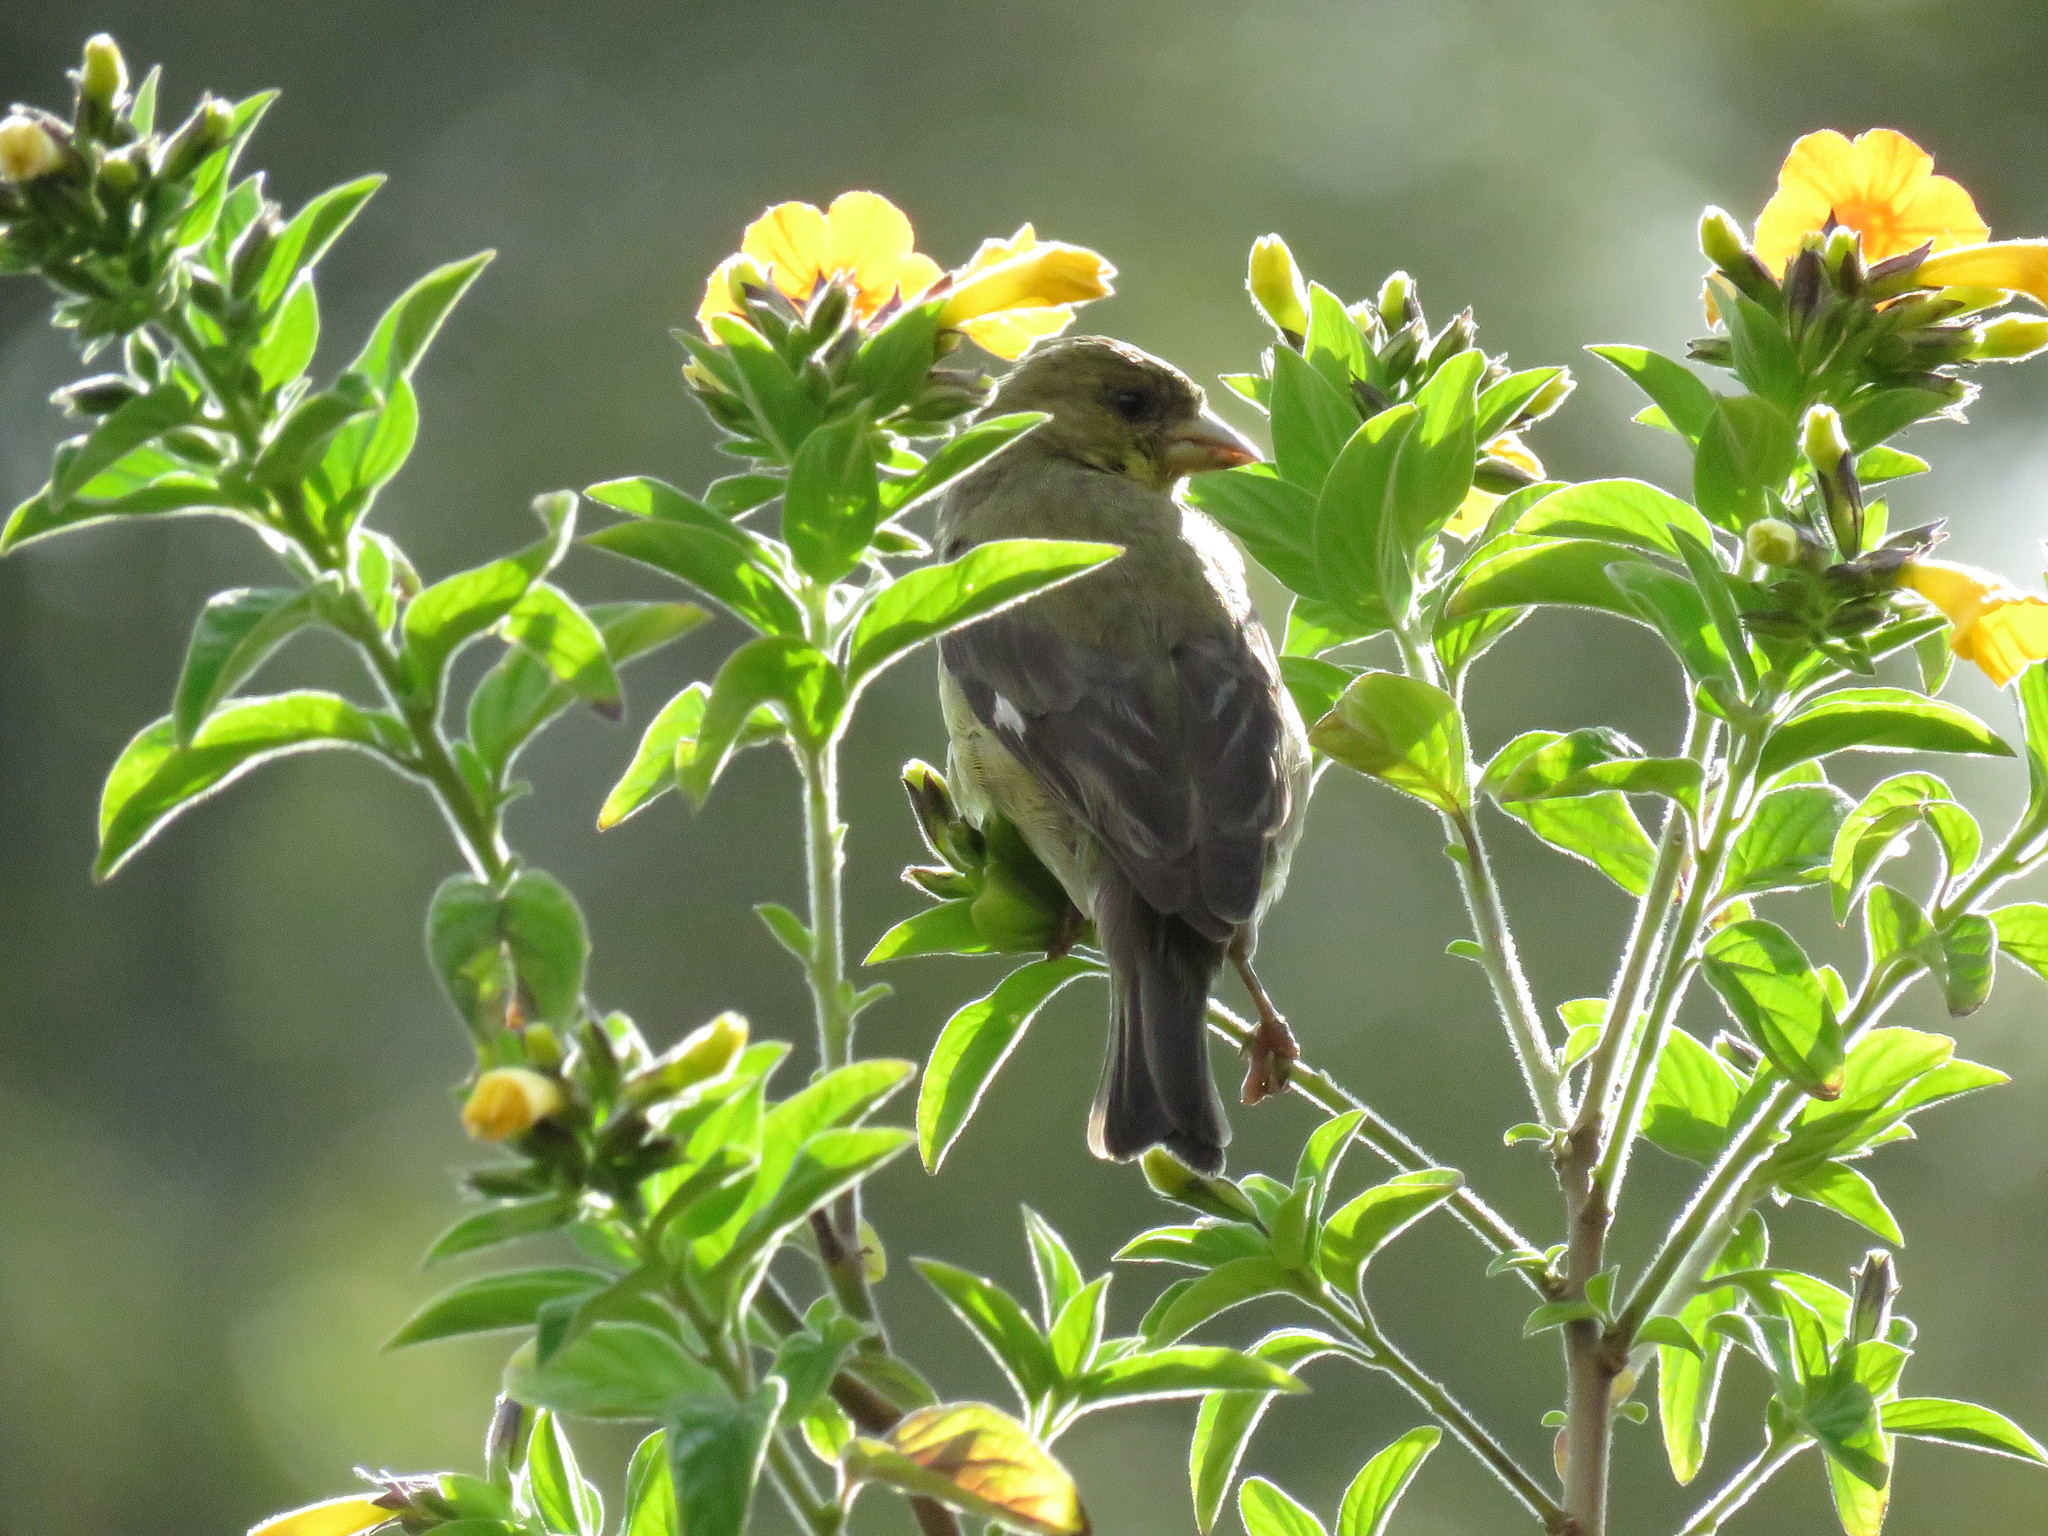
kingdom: Animalia
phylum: Chordata
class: Aves
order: Passeriformes
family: Fringillidae
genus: Spinus
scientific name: Spinus psaltria
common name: Lesser goldfinch
